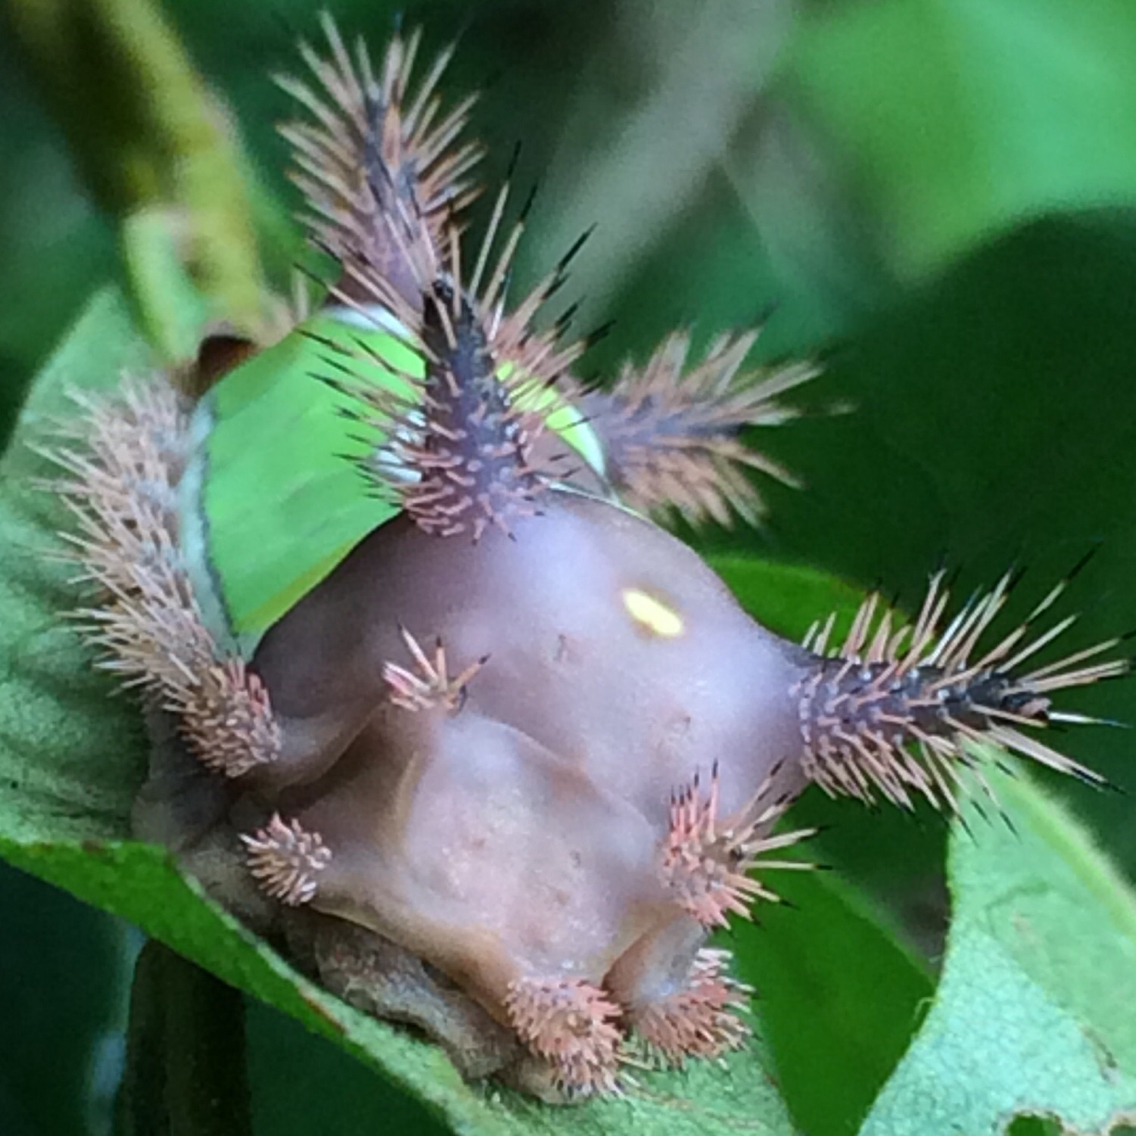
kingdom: Animalia
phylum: Arthropoda
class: Insecta
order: Lepidoptera
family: Limacodidae
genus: Acharia
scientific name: Acharia stimulea
